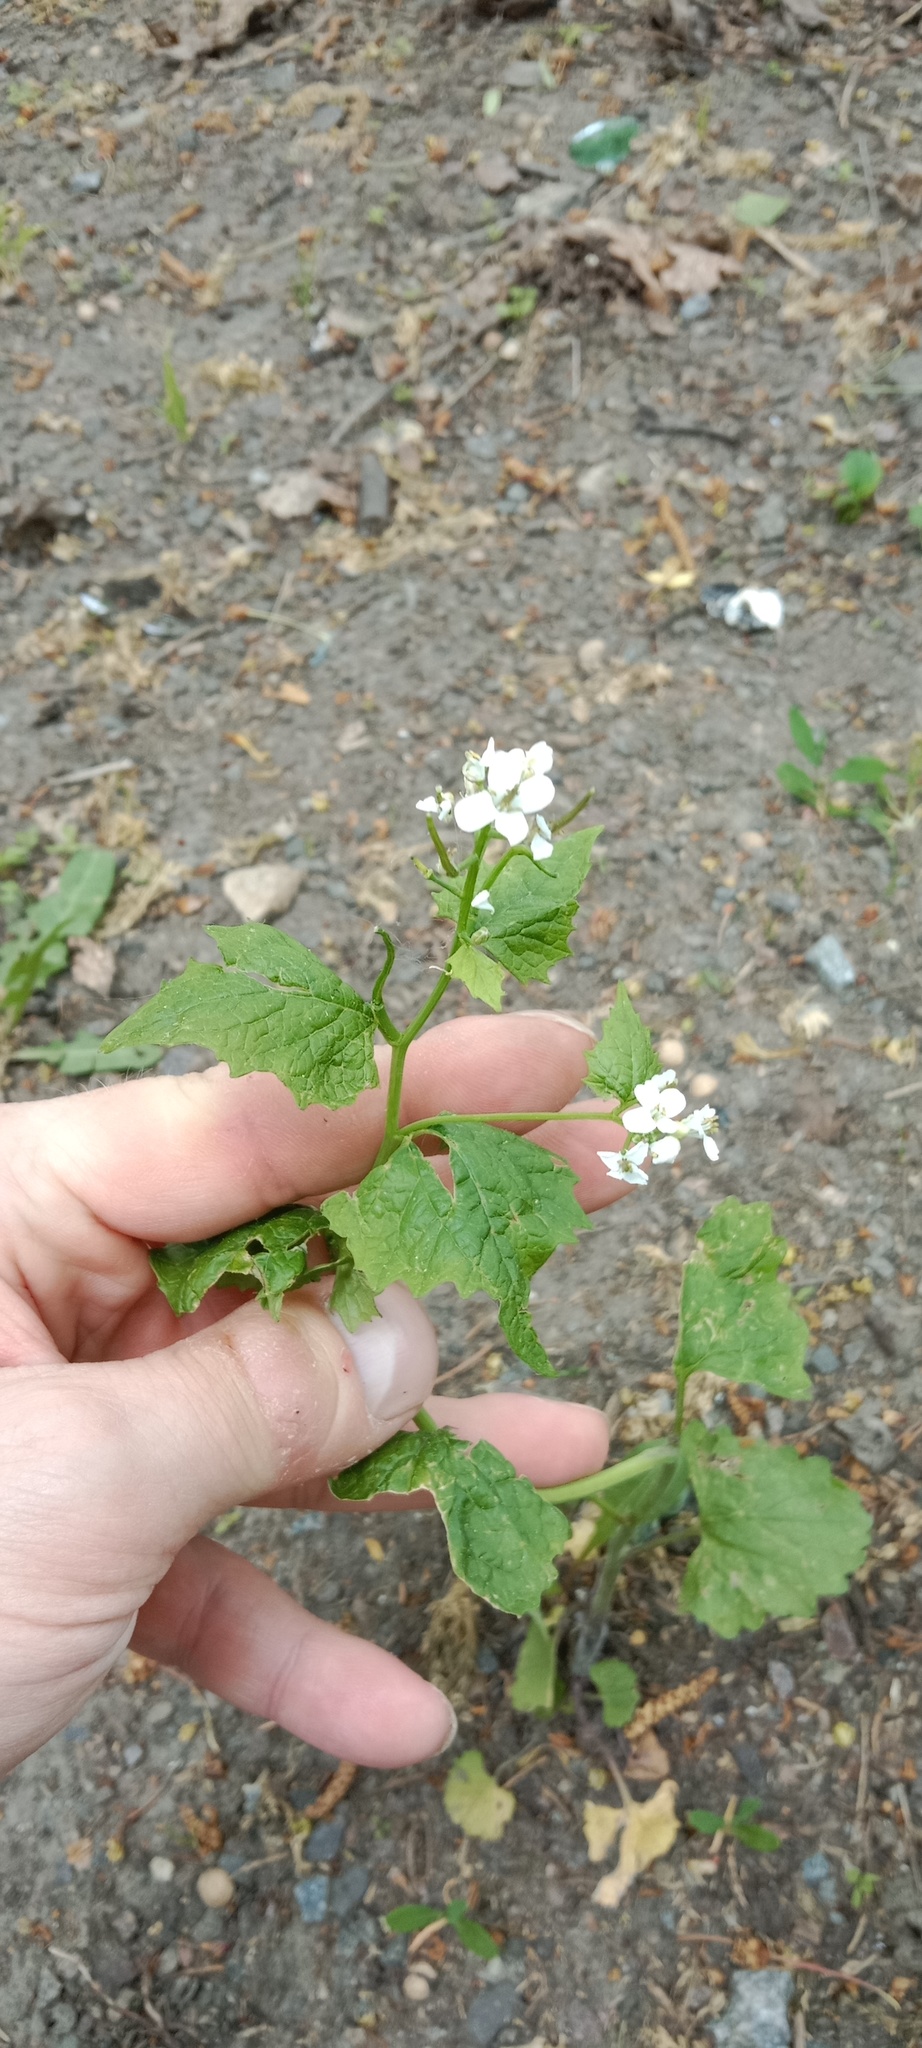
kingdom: Plantae
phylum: Tracheophyta
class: Magnoliopsida
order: Brassicales
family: Brassicaceae
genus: Alliaria
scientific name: Alliaria petiolata
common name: Garlic mustard
